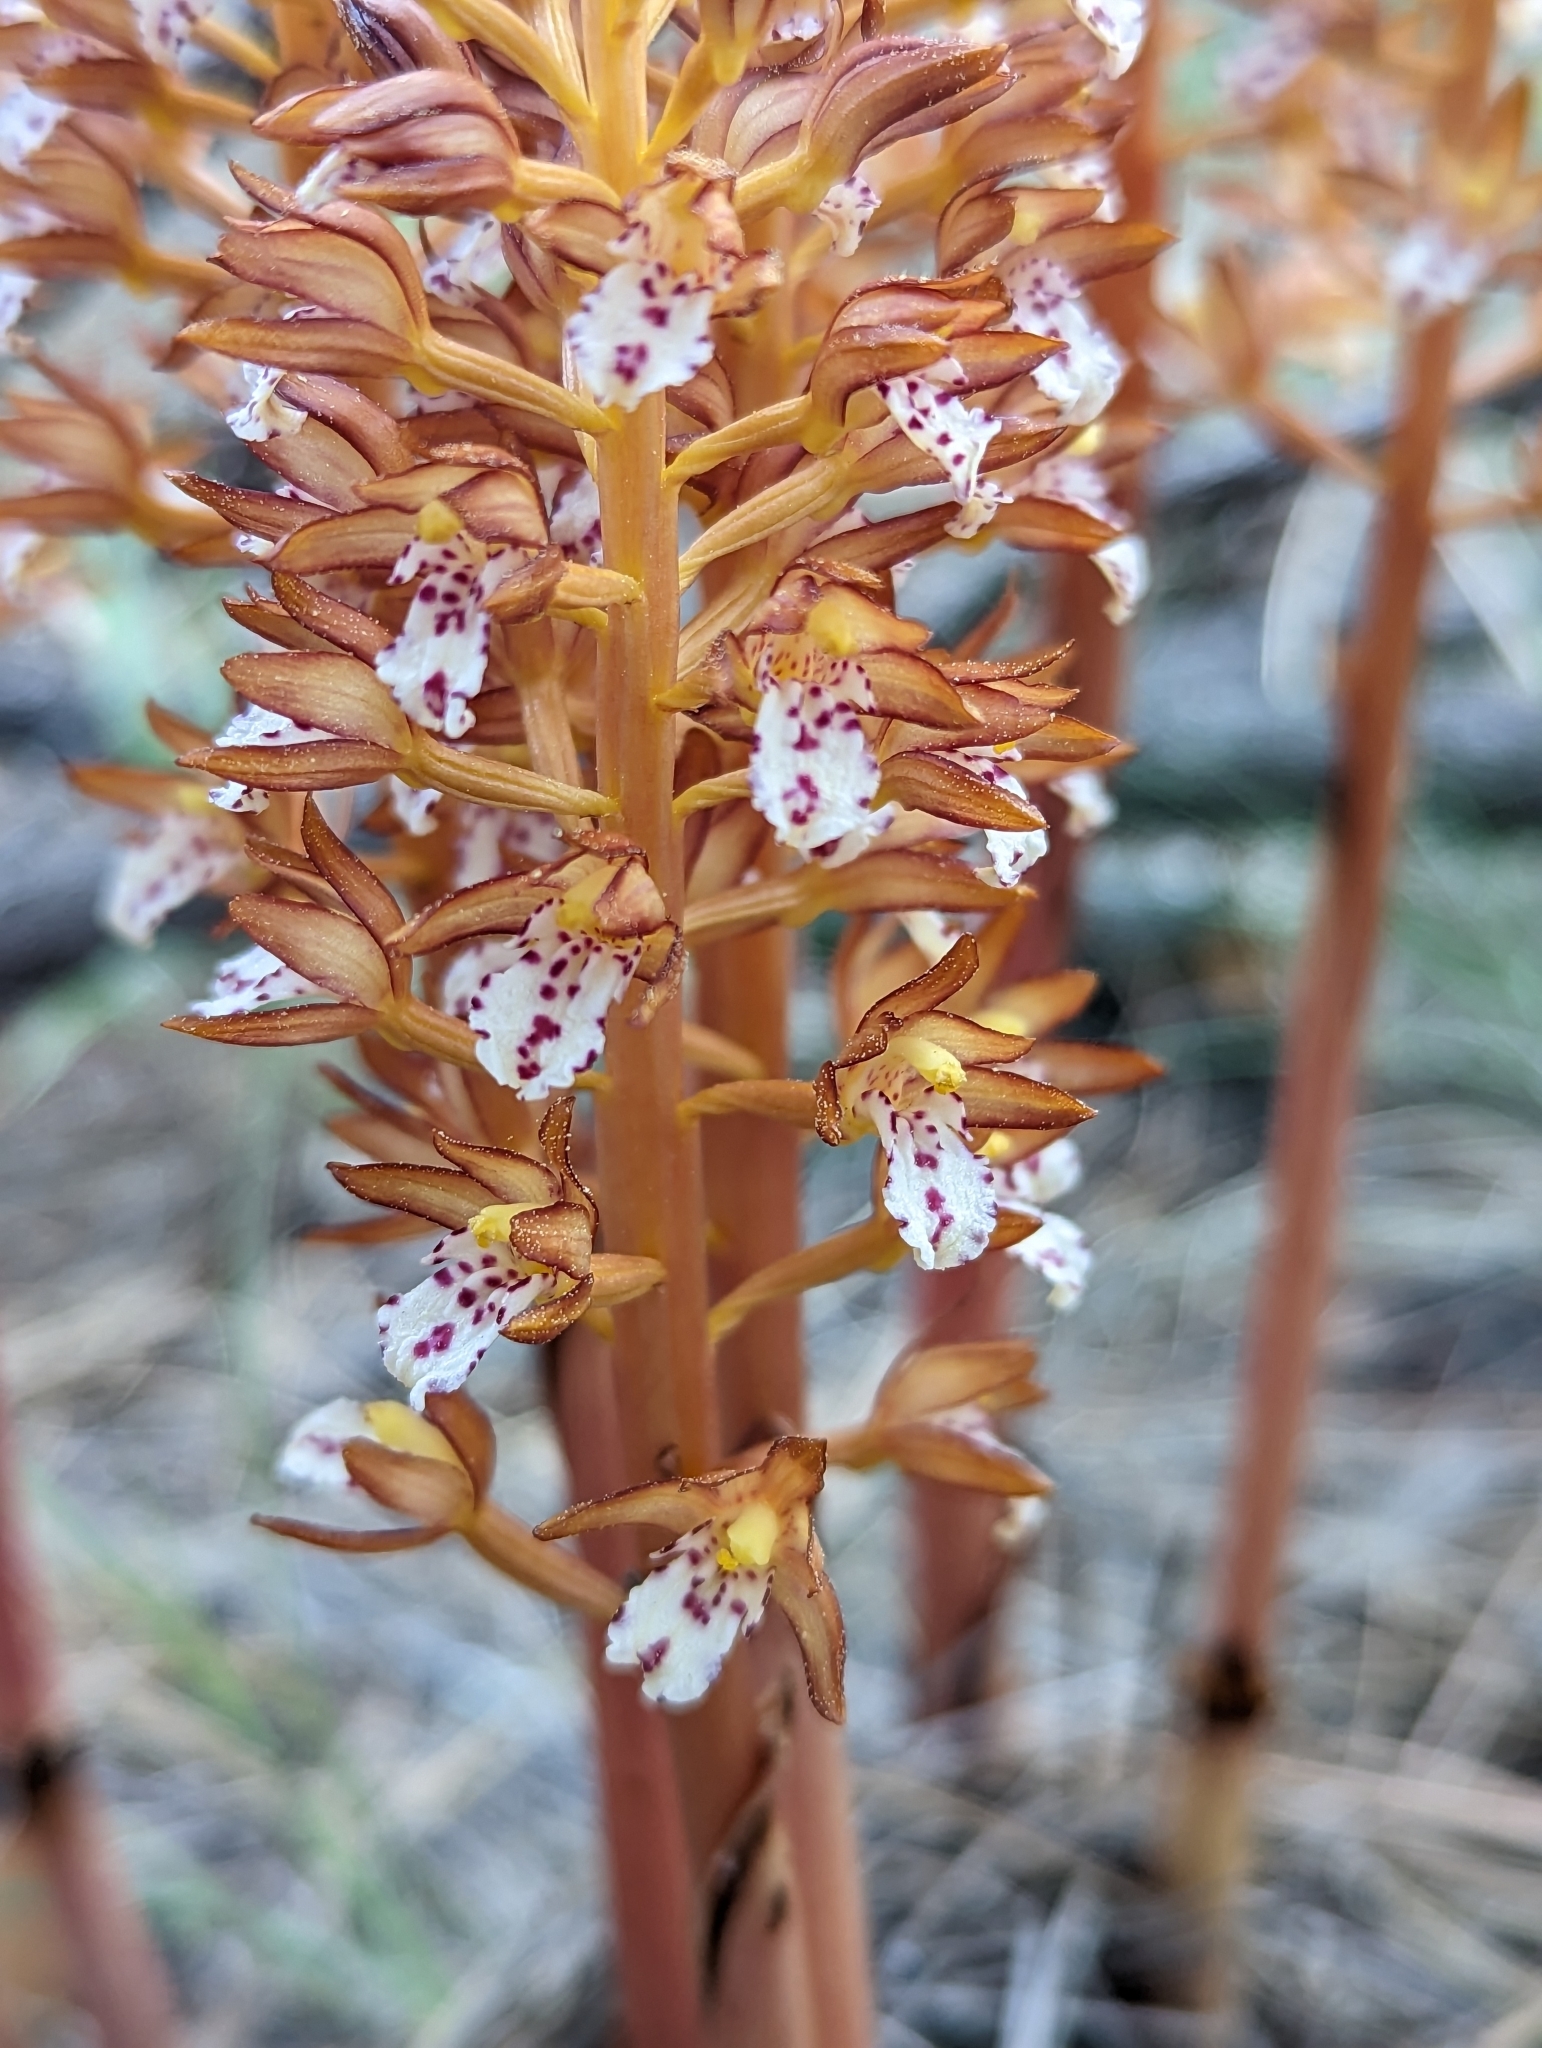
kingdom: Plantae
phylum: Tracheophyta
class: Liliopsida
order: Asparagales
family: Orchidaceae
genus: Corallorhiza
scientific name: Corallorhiza maculata
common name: Spotted coralroot
